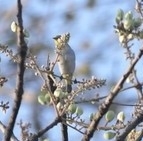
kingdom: Animalia
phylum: Chordata
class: Aves
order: Passeriformes
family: Zosteropidae
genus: Zosterops
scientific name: Zosterops palpebrosus
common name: Oriental white-eye
